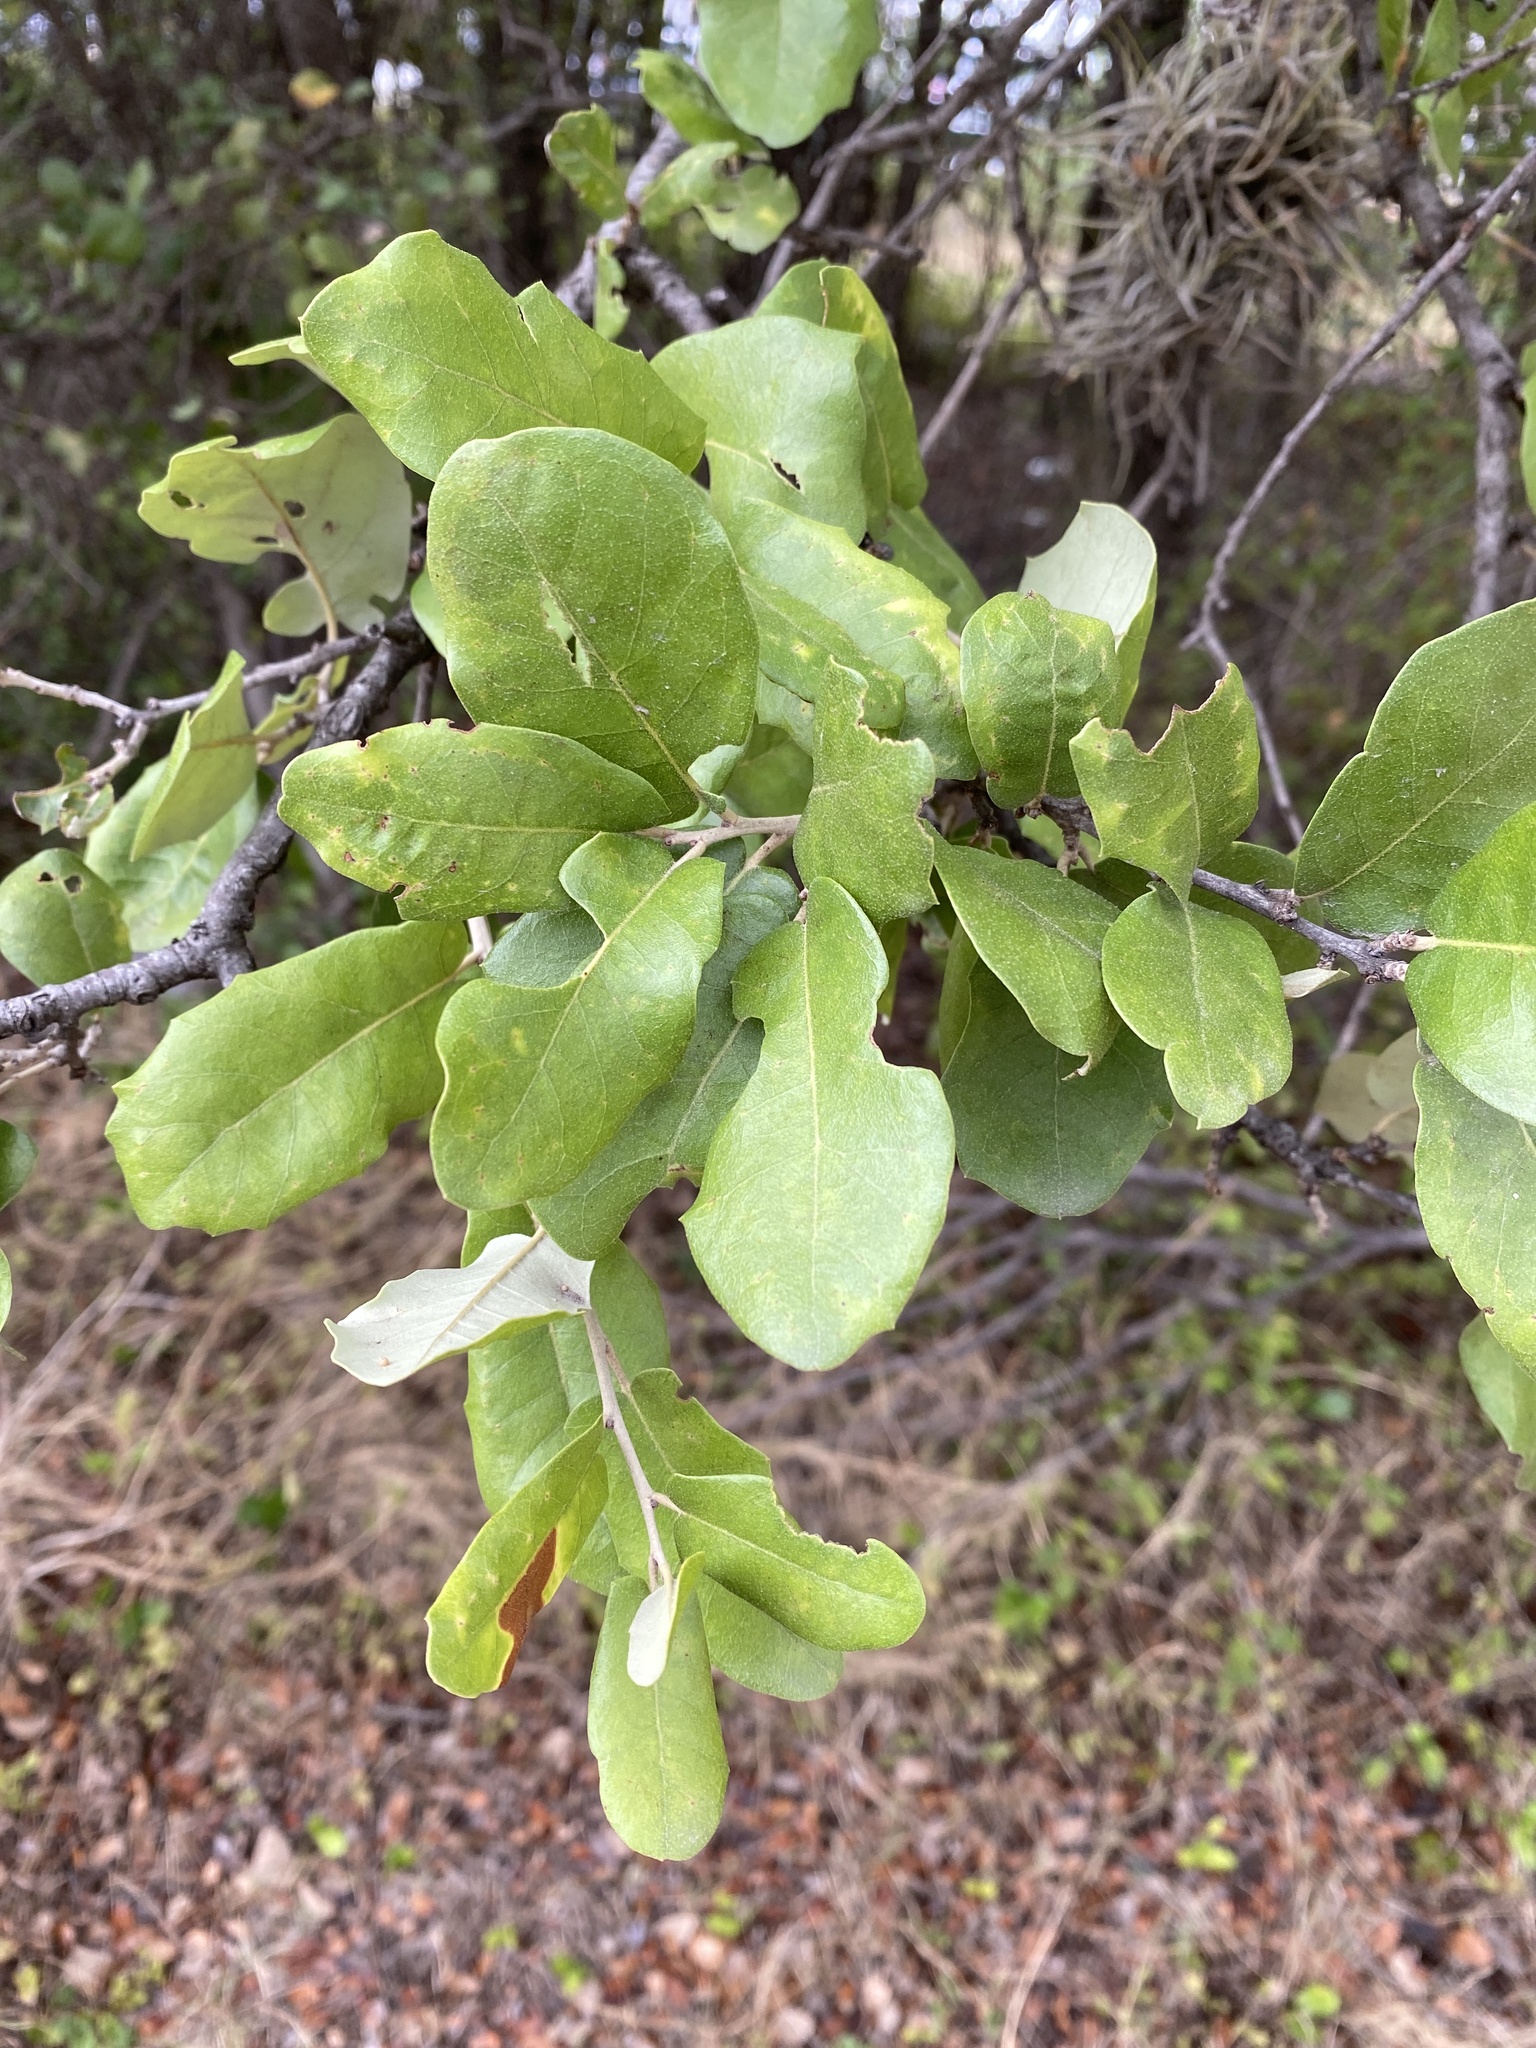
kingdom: Plantae
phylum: Tracheophyta
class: Magnoliopsida
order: Fagales
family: Fagaceae
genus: Quercus
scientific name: Quercus fusiformis
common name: Texas live oak
